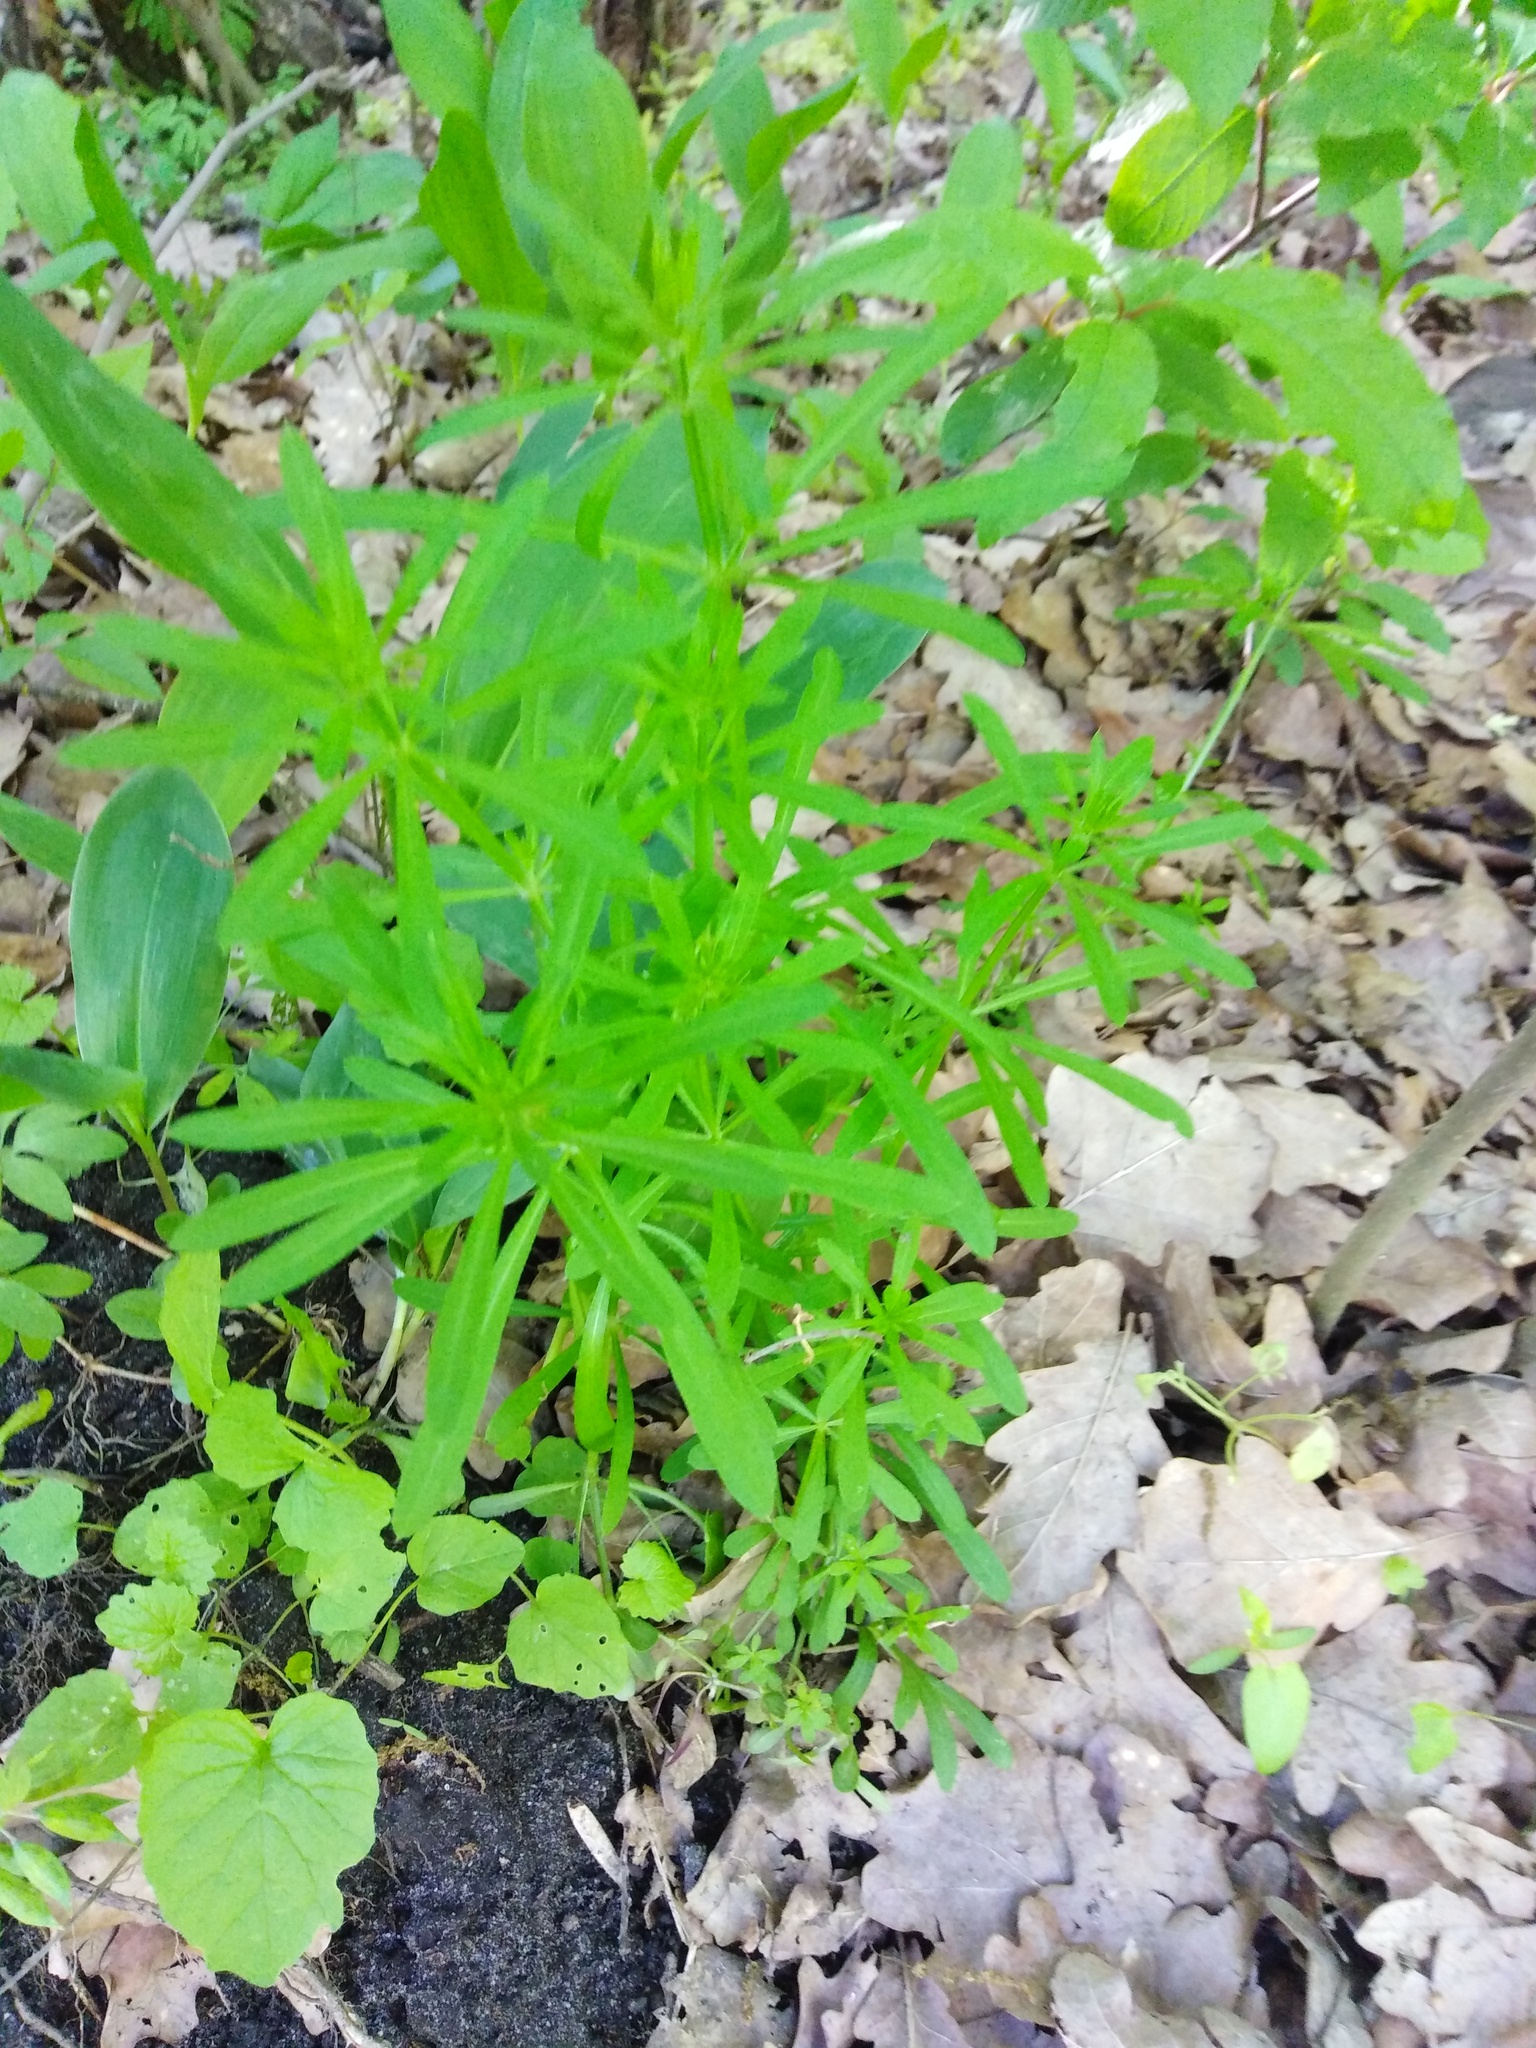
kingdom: Plantae
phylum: Tracheophyta
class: Magnoliopsida
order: Gentianales
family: Rubiaceae
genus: Galium
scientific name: Galium aparine
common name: Cleavers
